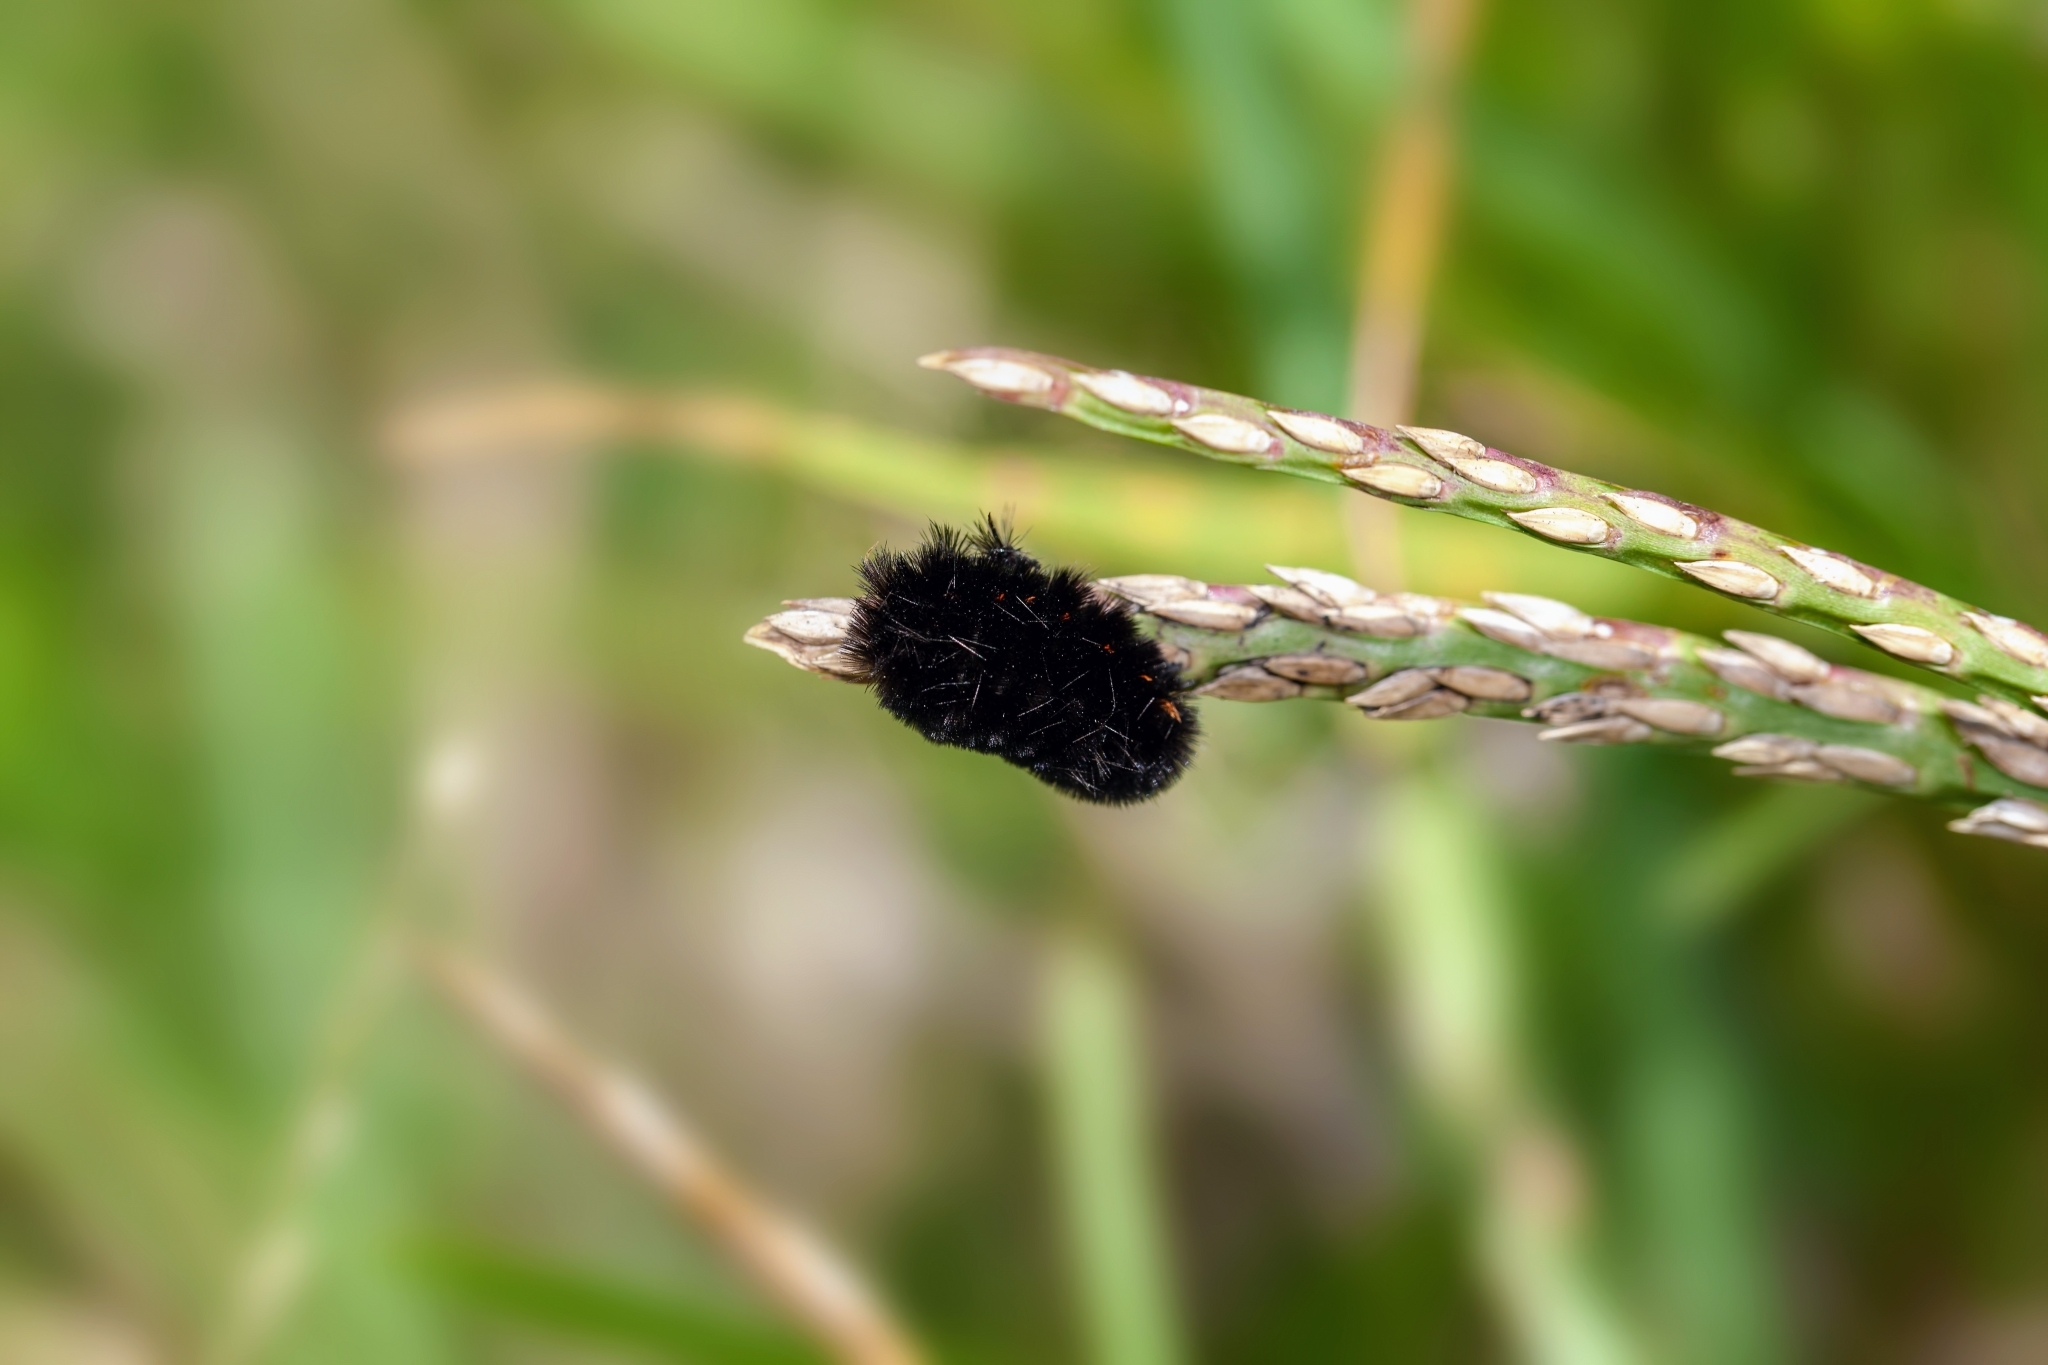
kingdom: Animalia
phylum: Arthropoda
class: Insecta
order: Lepidoptera
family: Erebidae
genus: Spilosoma
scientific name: Spilosoma congrua
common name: Agreeable tiger moth
